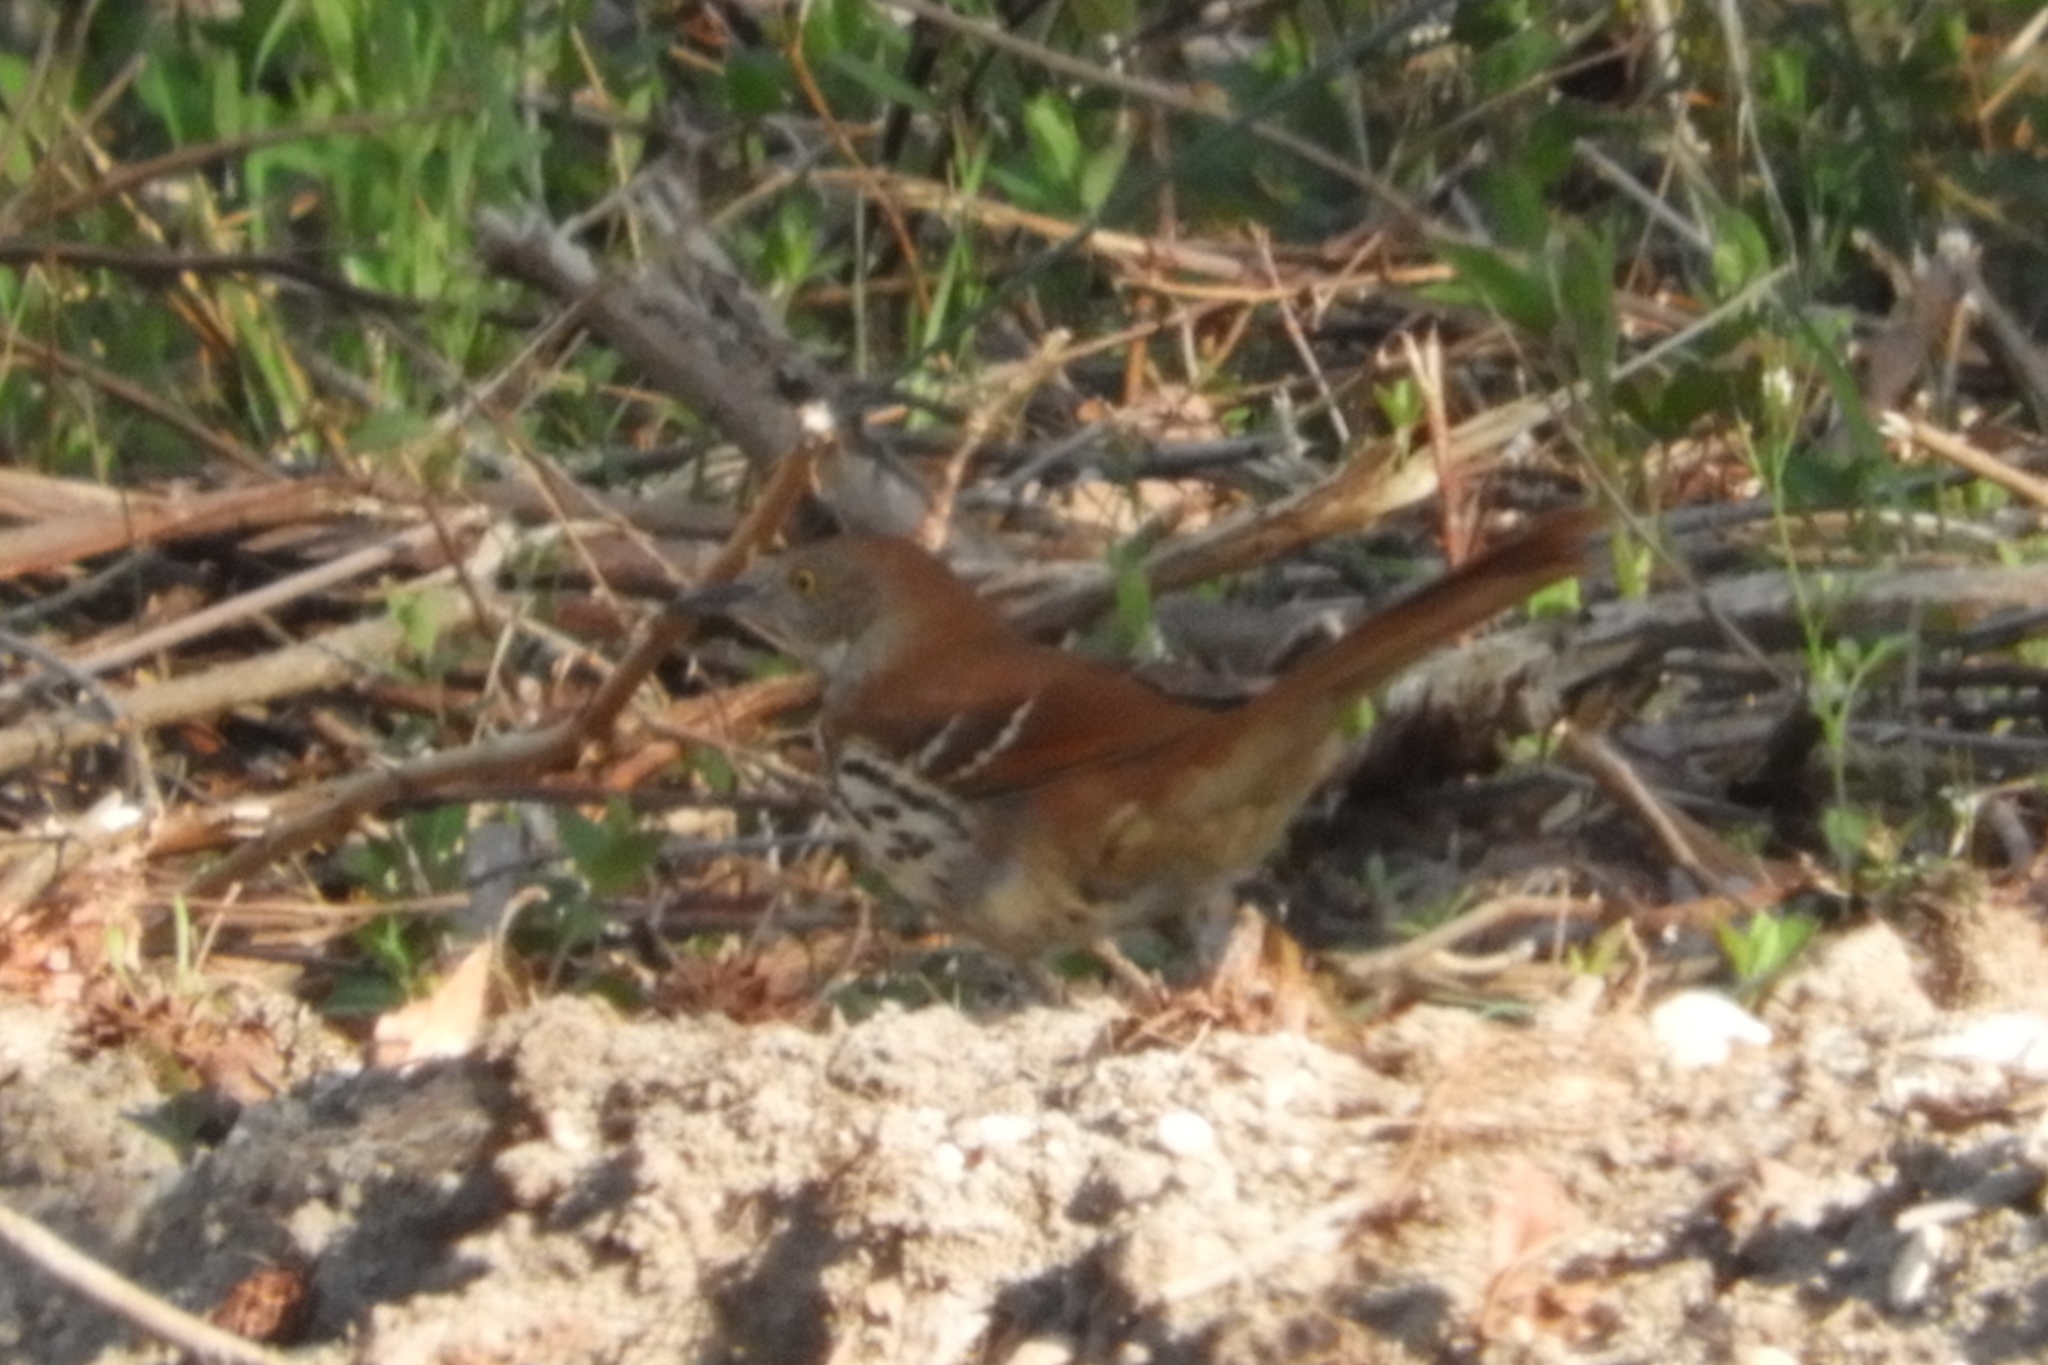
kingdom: Animalia
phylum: Chordata
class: Aves
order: Passeriformes
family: Mimidae
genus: Toxostoma
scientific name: Toxostoma rufum
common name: Brown thrasher
